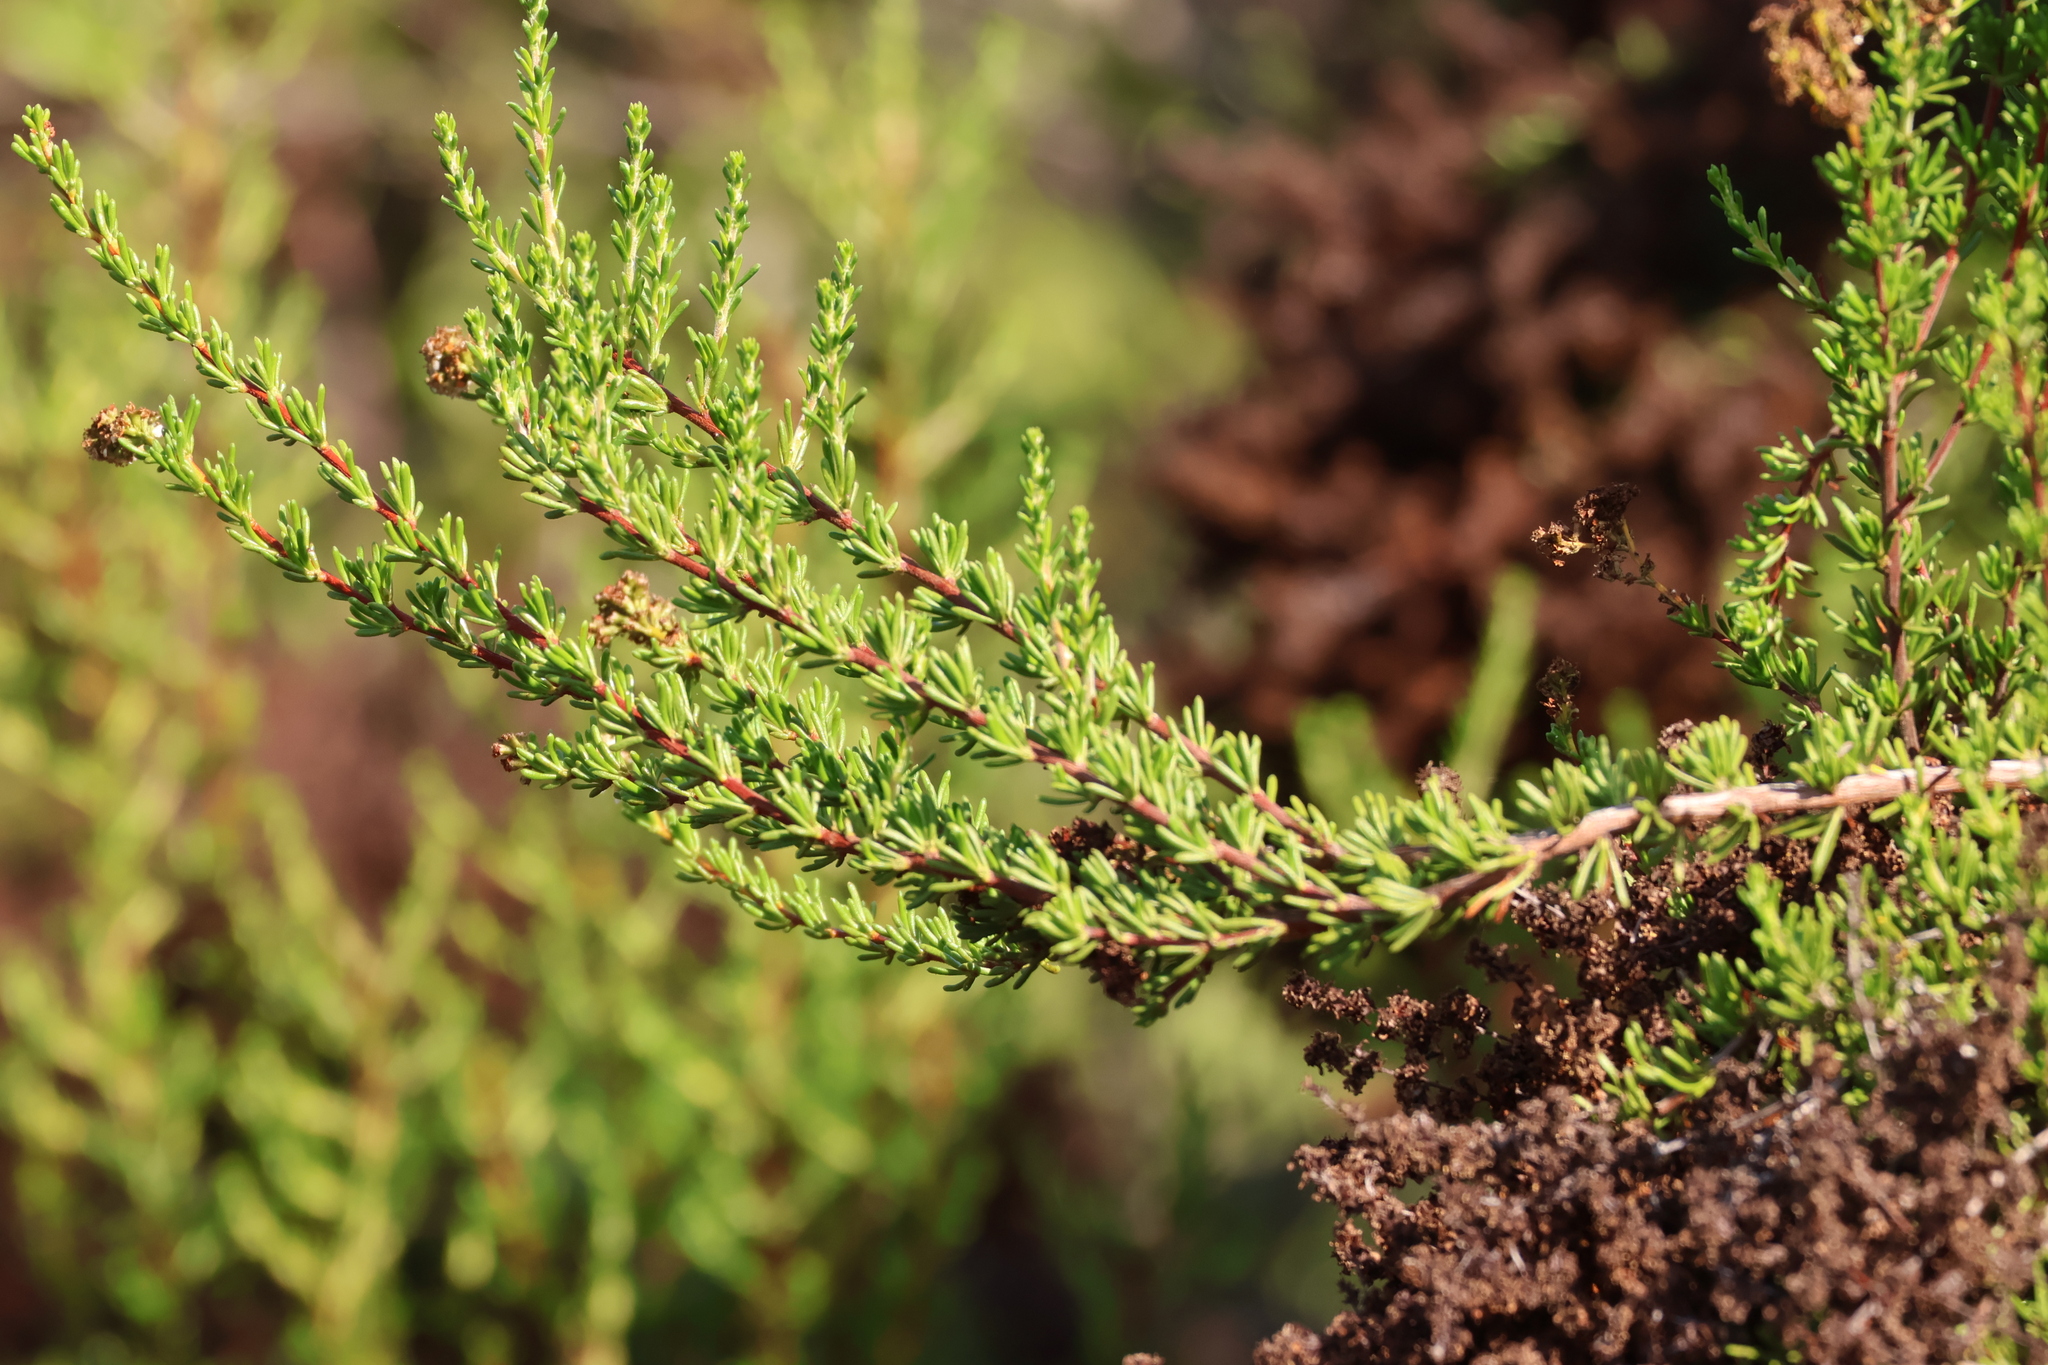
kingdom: Plantae
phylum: Tracheophyta
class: Magnoliopsida
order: Rosales
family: Rosaceae
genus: Adenostoma
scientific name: Adenostoma fasciculatum
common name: Chamise
